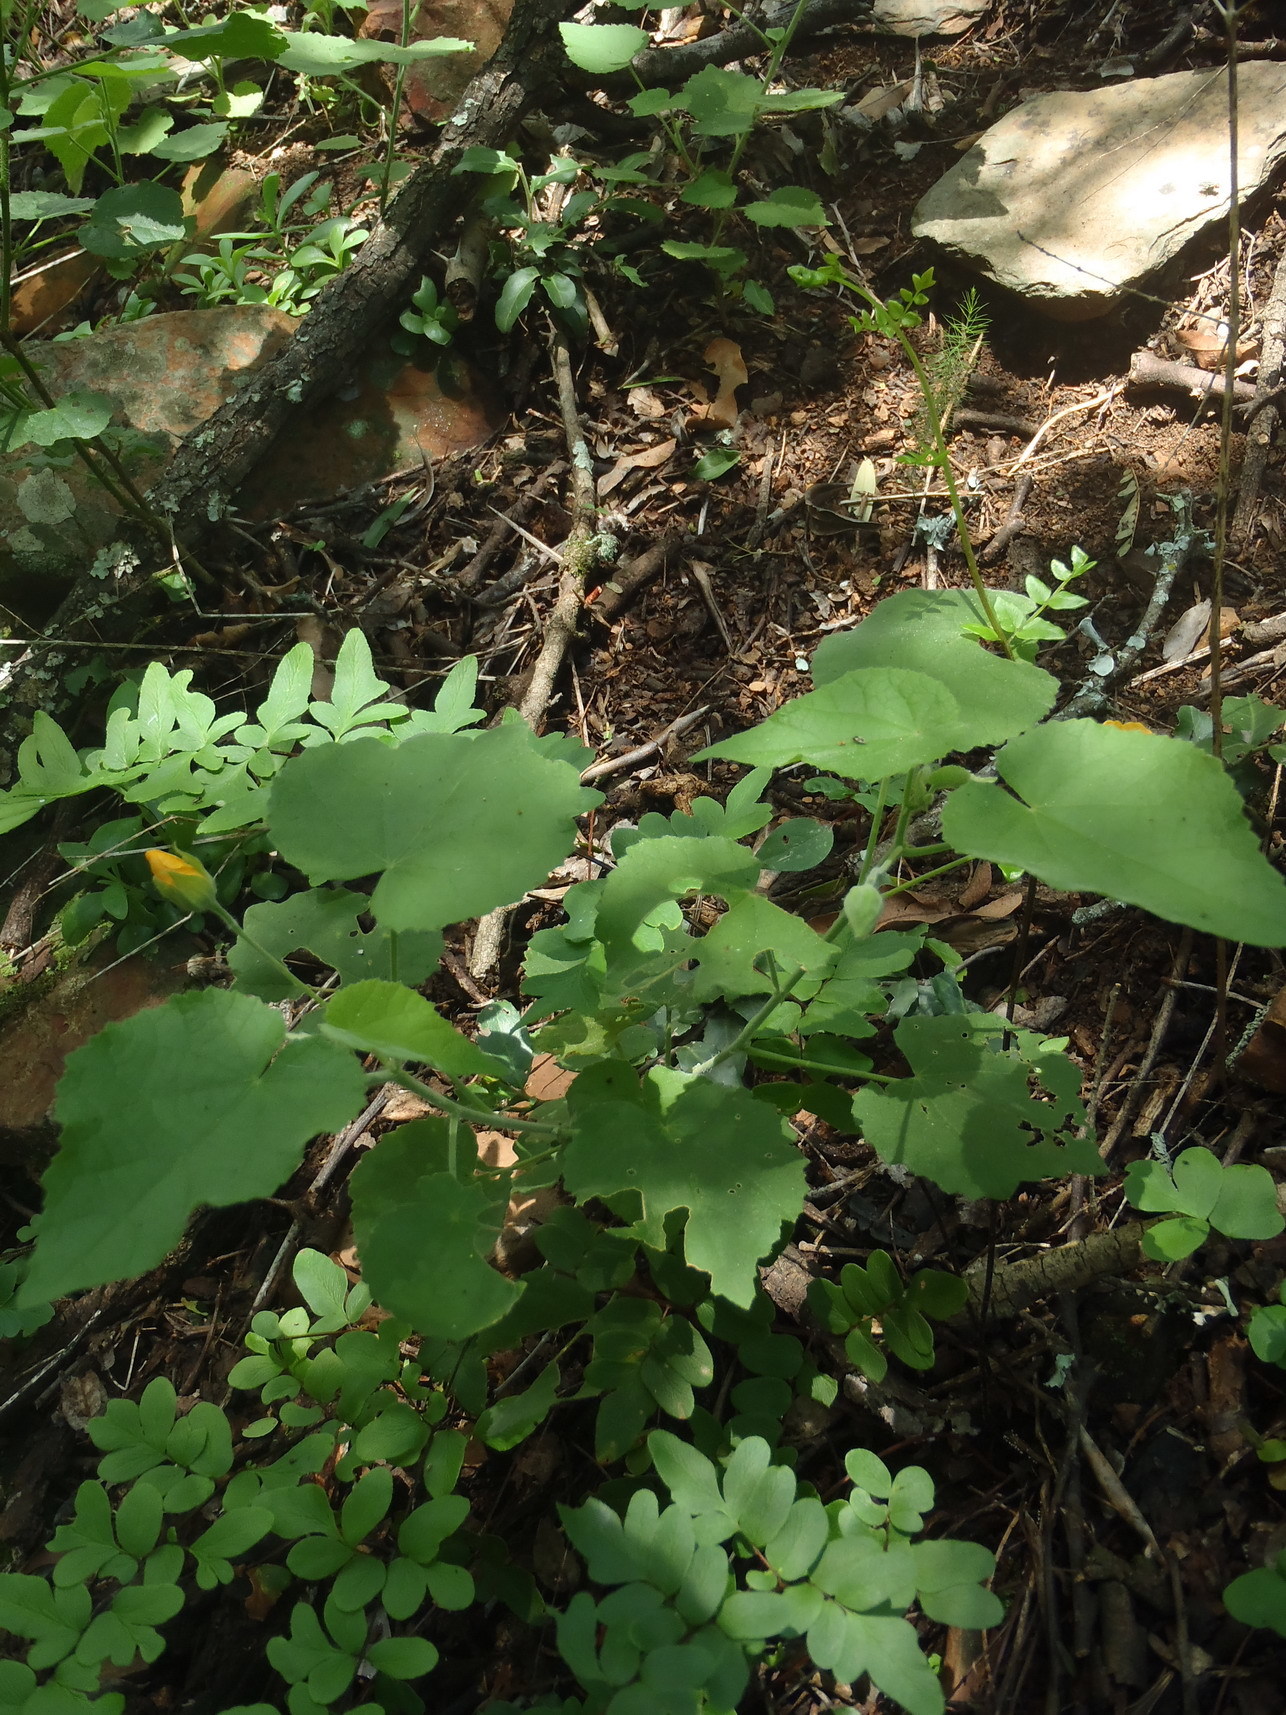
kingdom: Plantae
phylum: Tracheophyta
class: Magnoliopsida
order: Malvales
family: Malvaceae
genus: Abutilon
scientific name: Abutilon pilosocinereum
